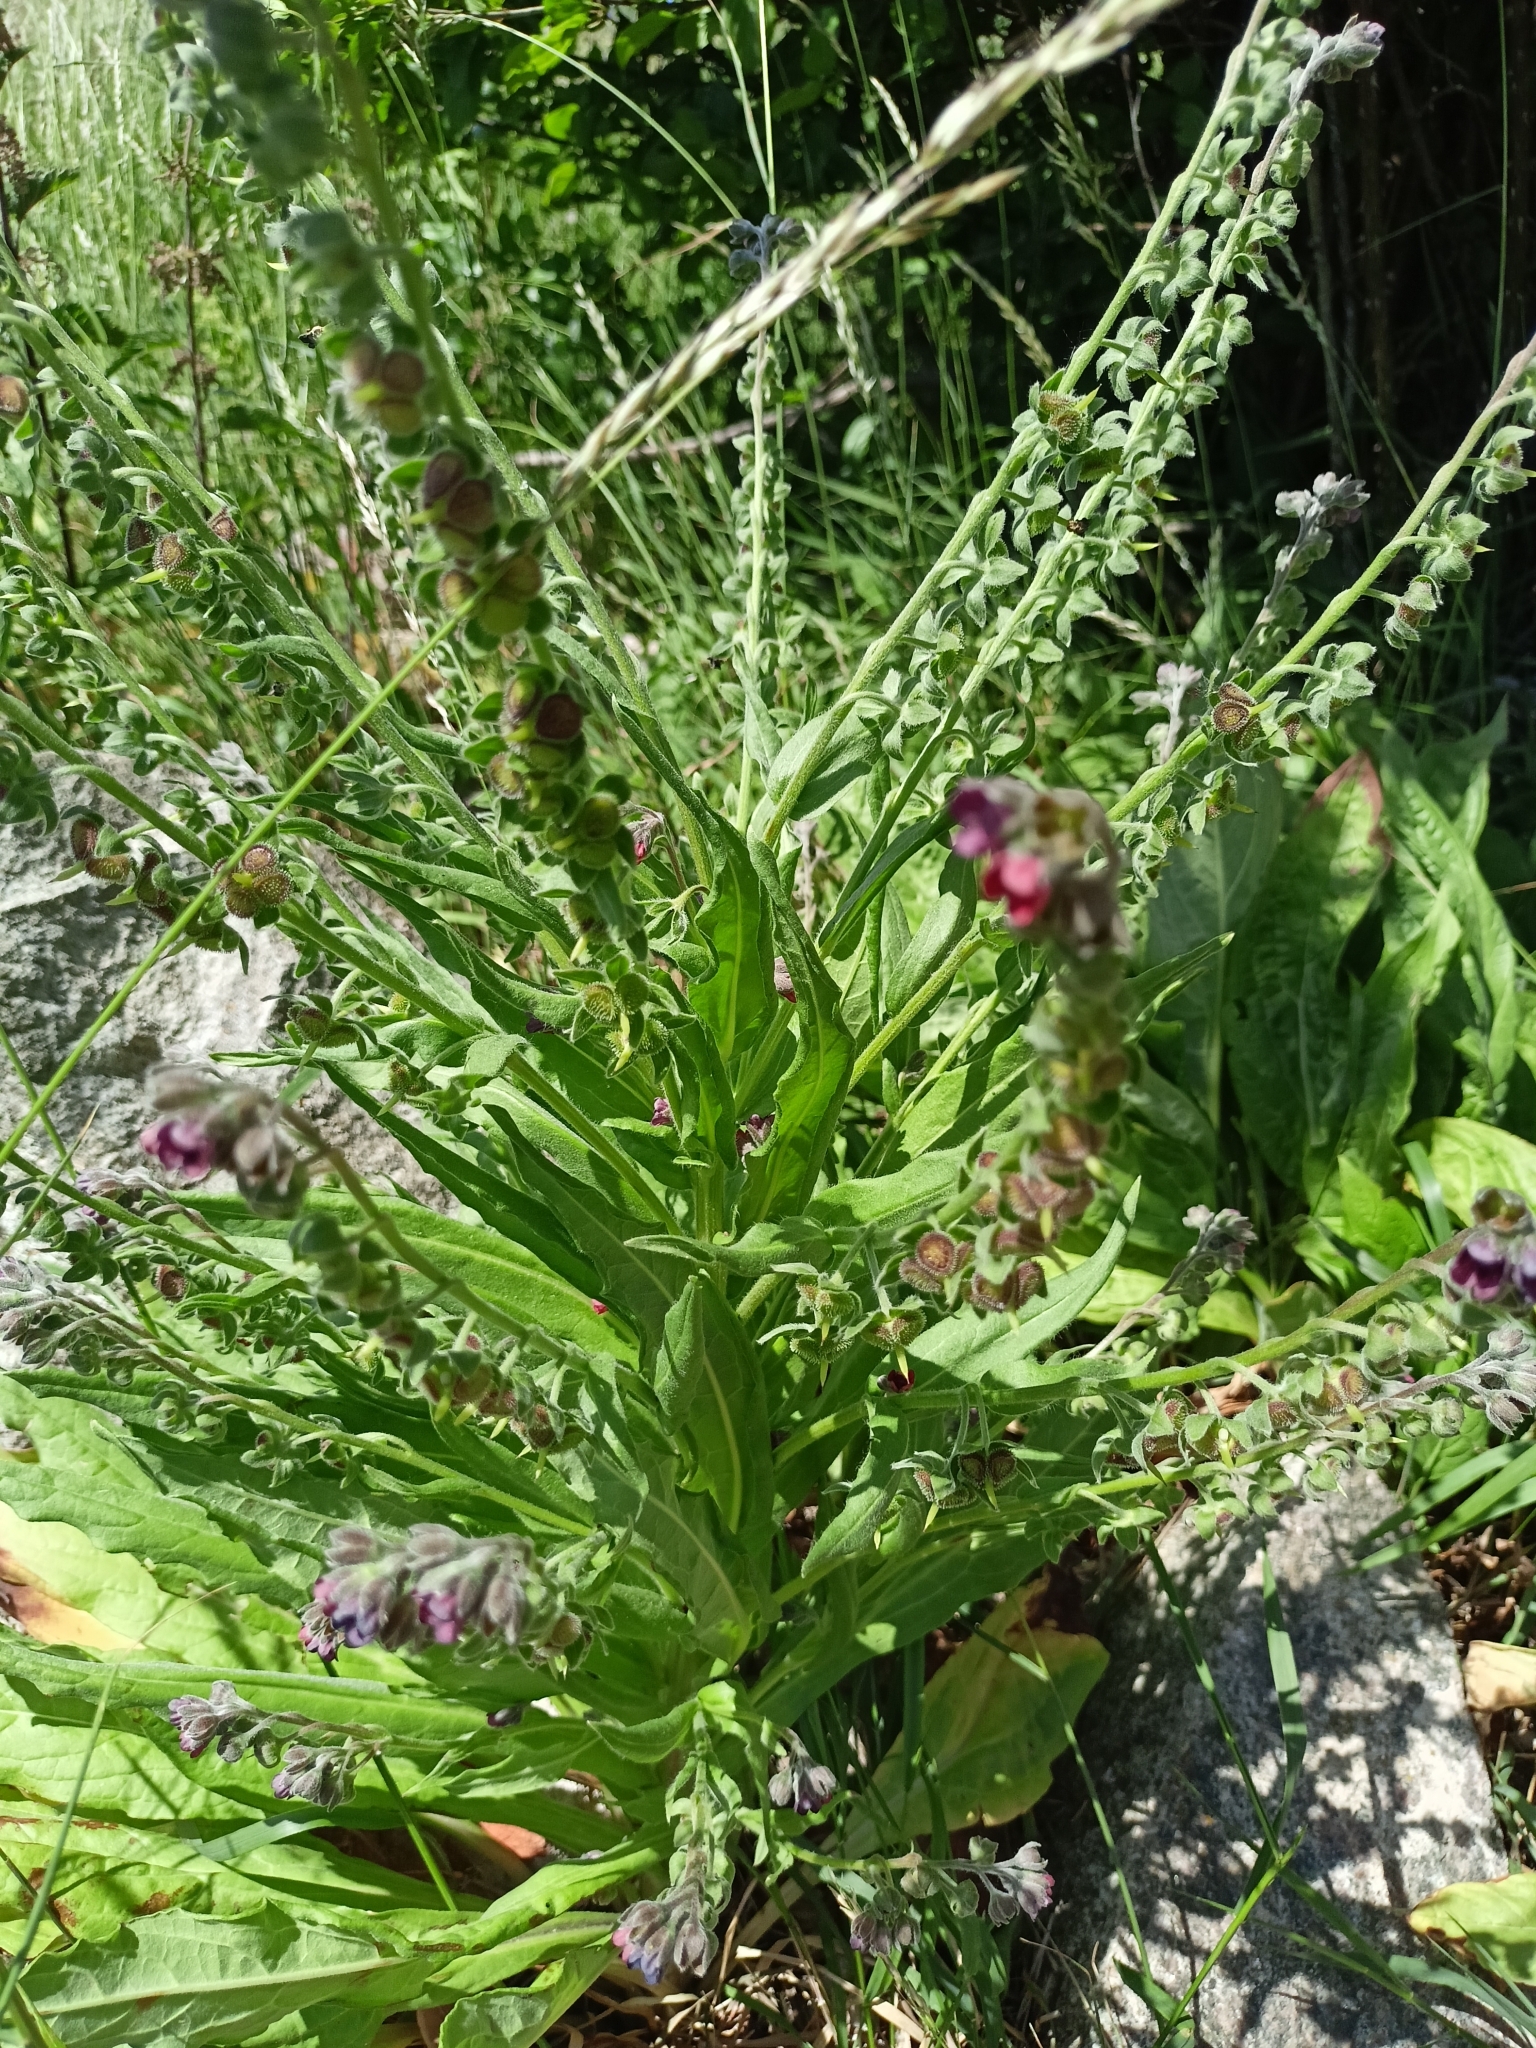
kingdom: Plantae
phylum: Tracheophyta
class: Magnoliopsida
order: Boraginales
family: Boraginaceae
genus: Cynoglossum
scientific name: Cynoglossum officinale
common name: Hound's-tongue
